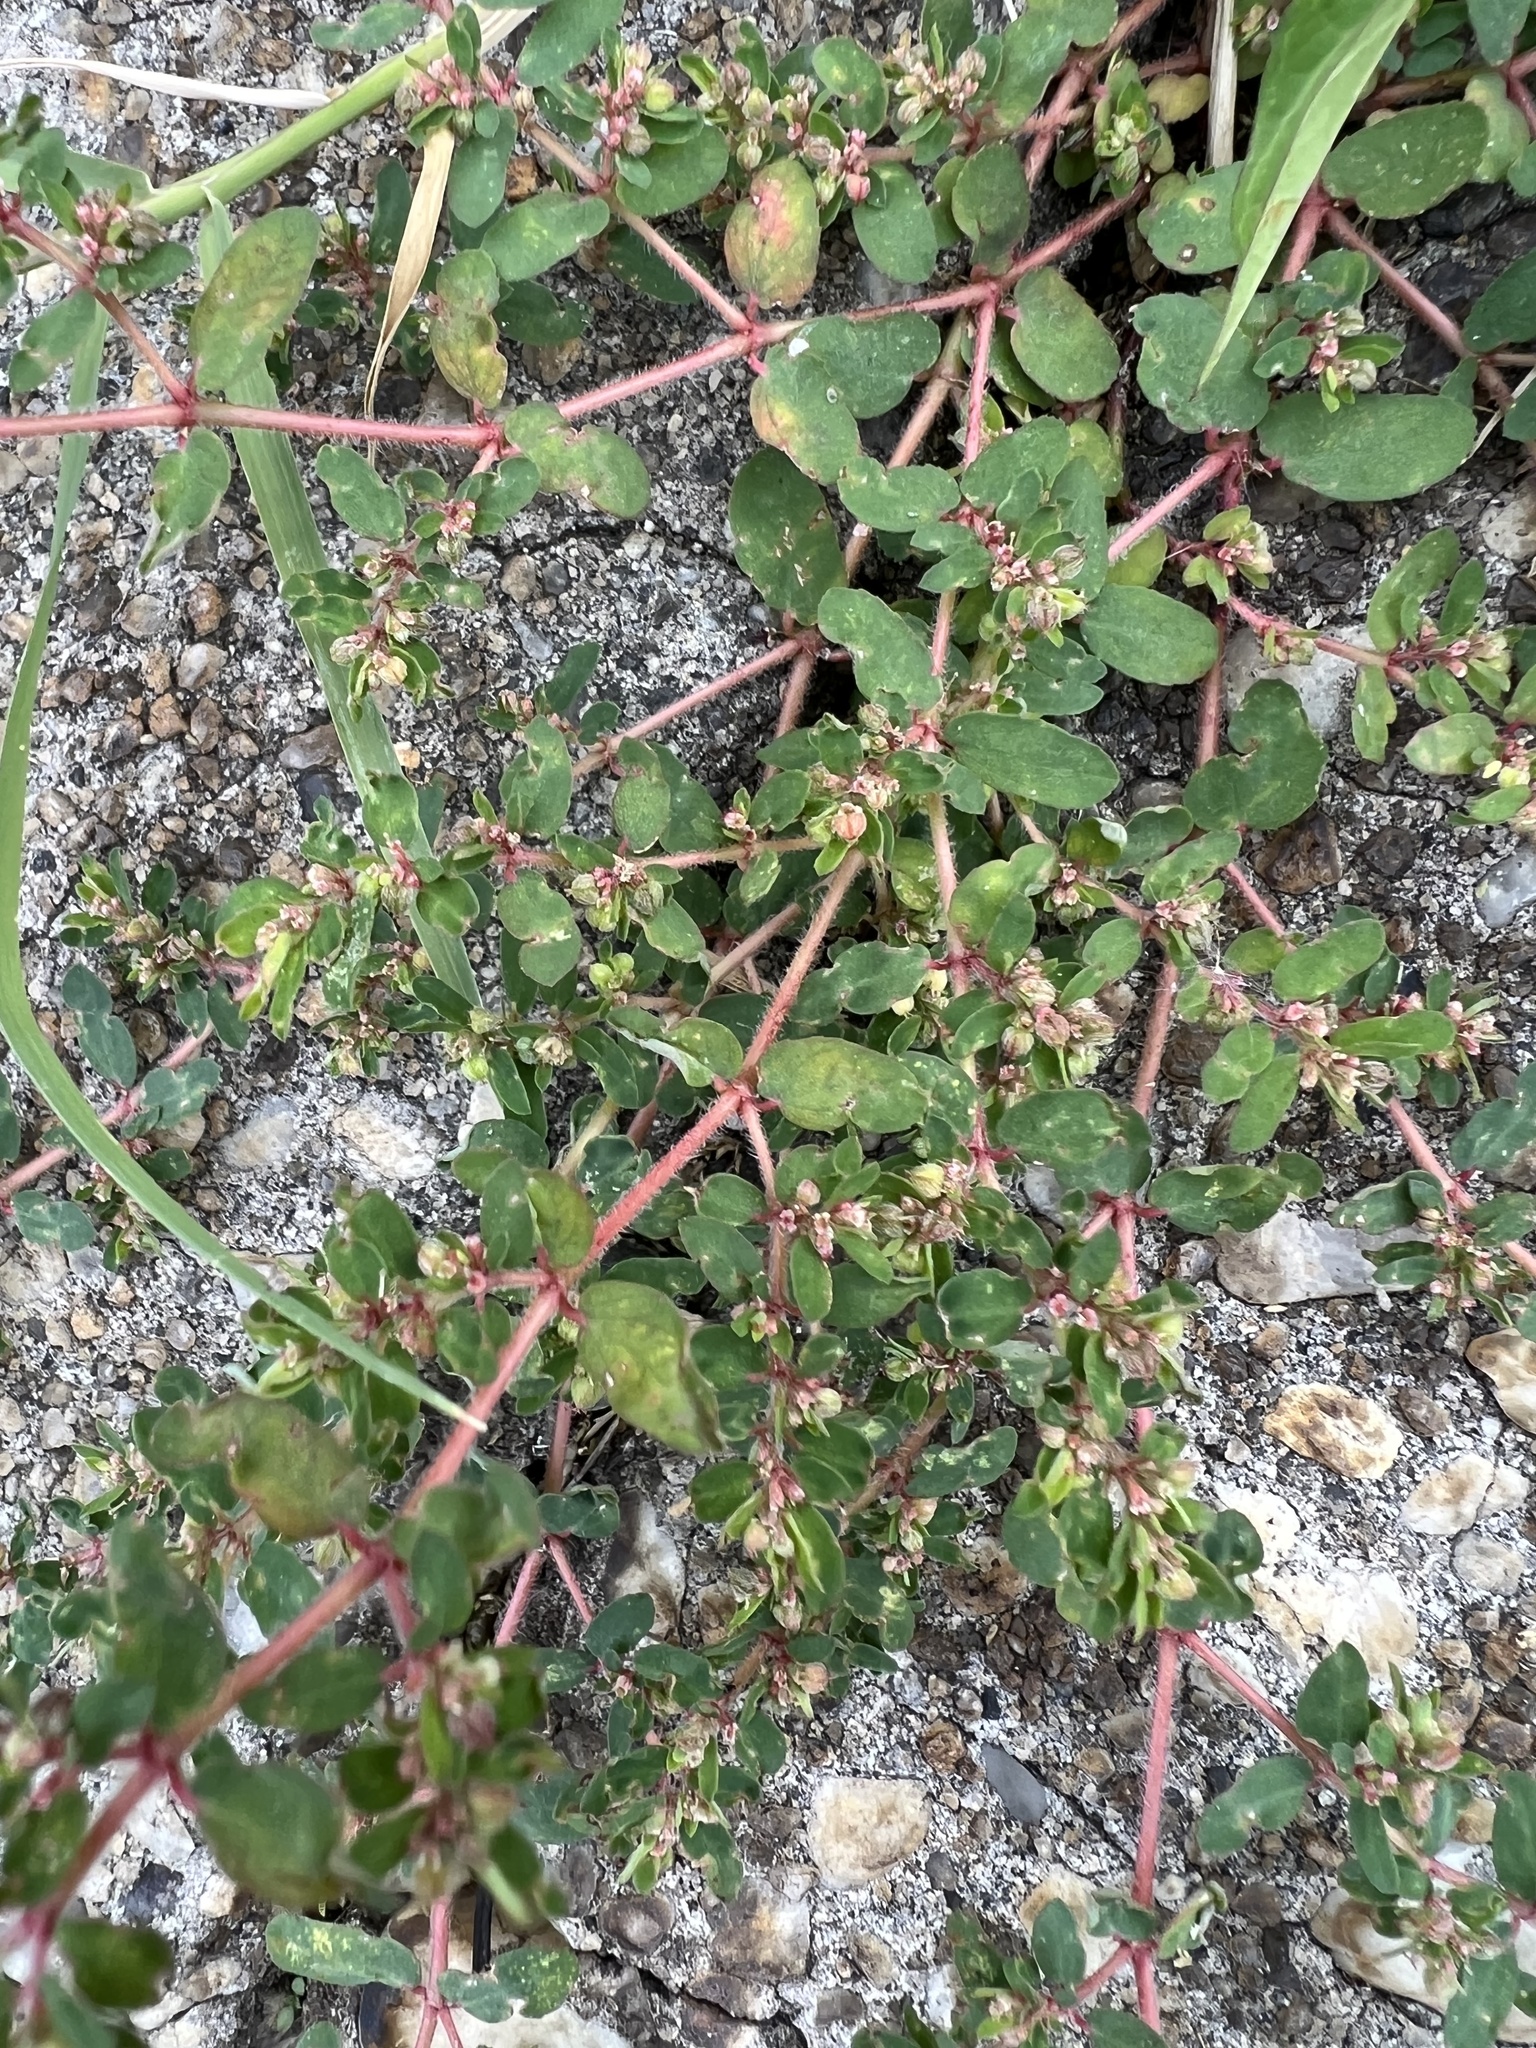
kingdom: Plantae
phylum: Tracheophyta
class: Magnoliopsida
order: Malpighiales
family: Euphorbiaceae
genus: Euphorbia
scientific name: Euphorbia maculata
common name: Spotted spurge
